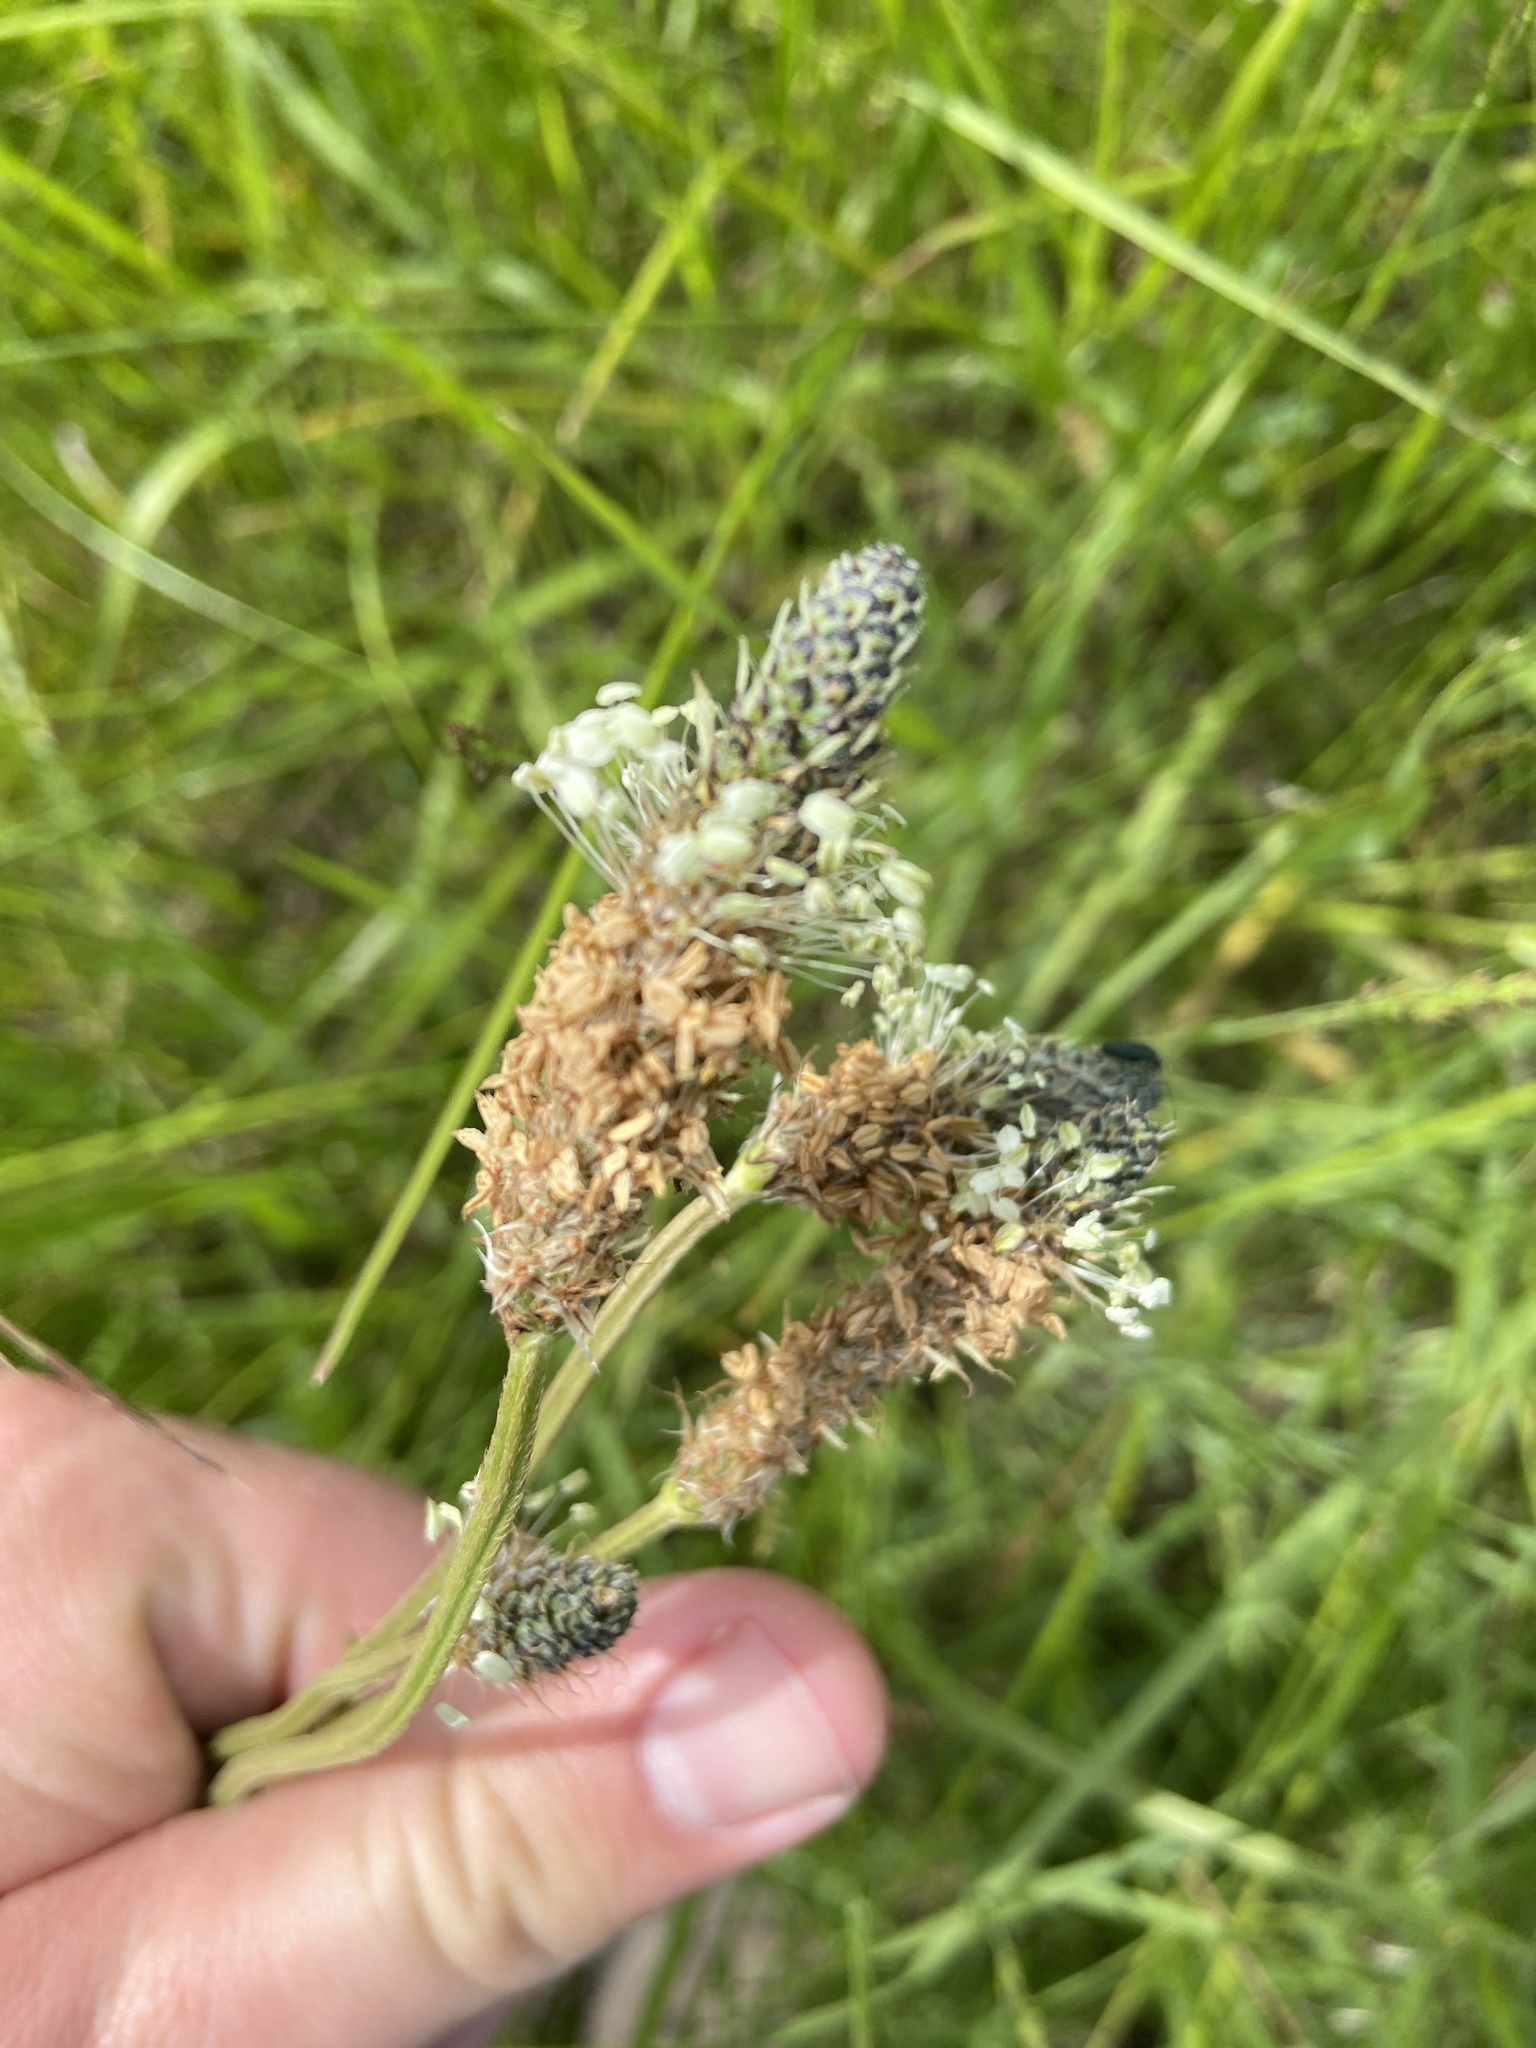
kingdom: Plantae
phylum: Tracheophyta
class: Magnoliopsida
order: Lamiales
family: Plantaginaceae
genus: Plantago
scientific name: Plantago lanceolata
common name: Ribwort plantain
